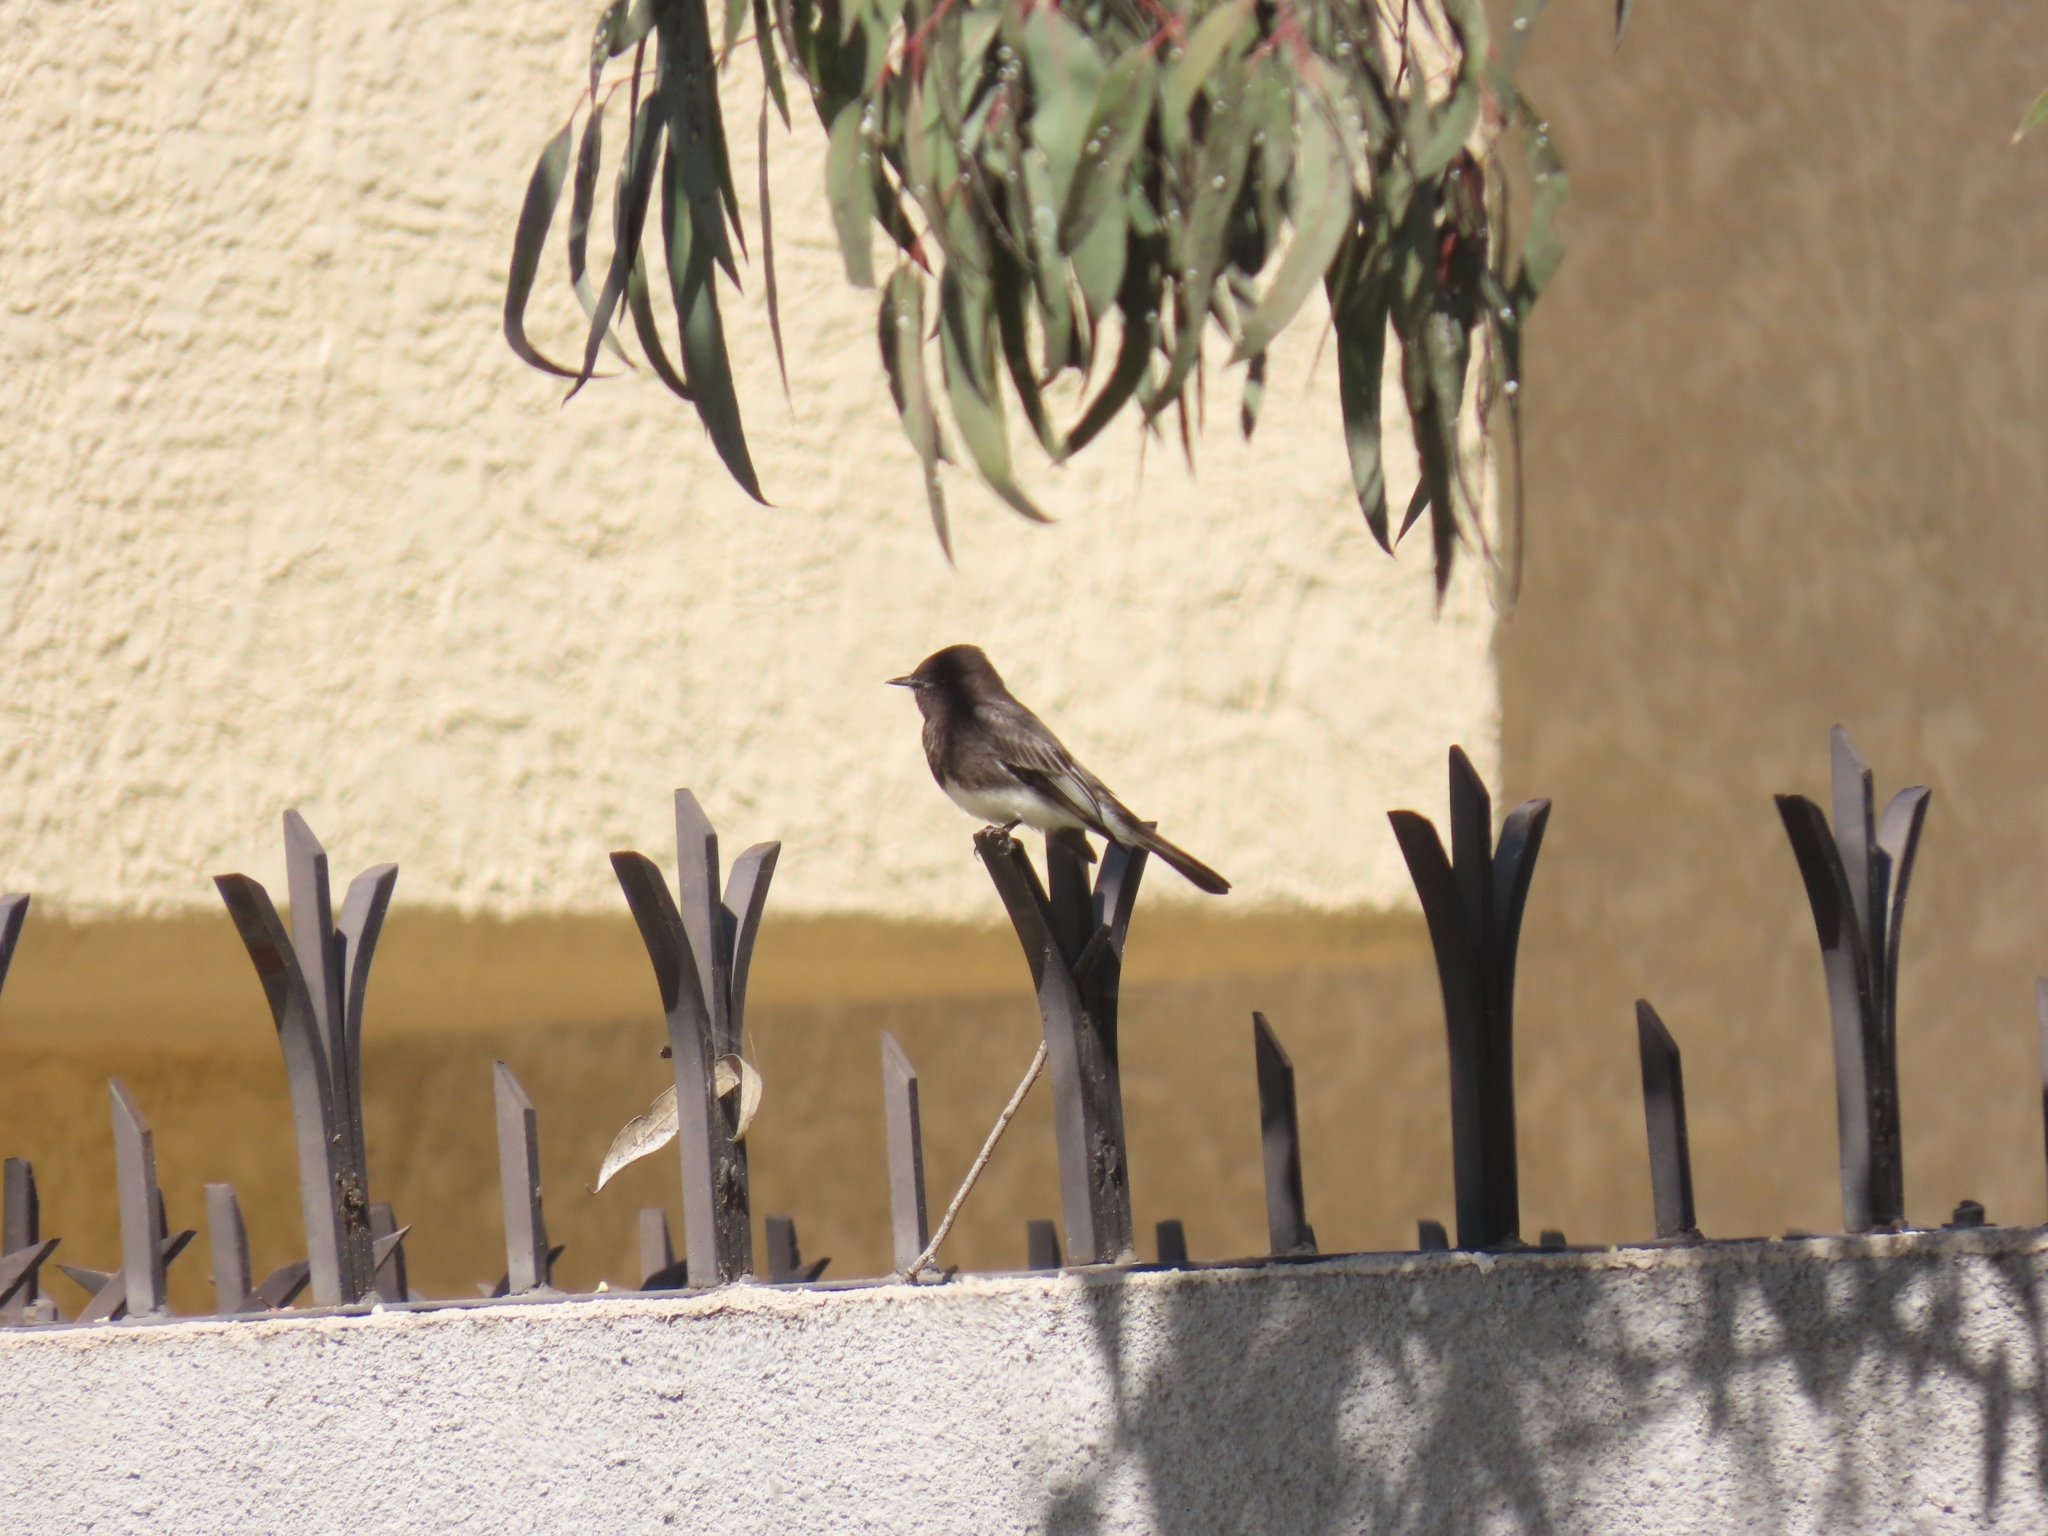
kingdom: Animalia
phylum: Chordata
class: Aves
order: Passeriformes
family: Tyrannidae
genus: Sayornis
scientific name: Sayornis nigricans
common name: Black phoebe
